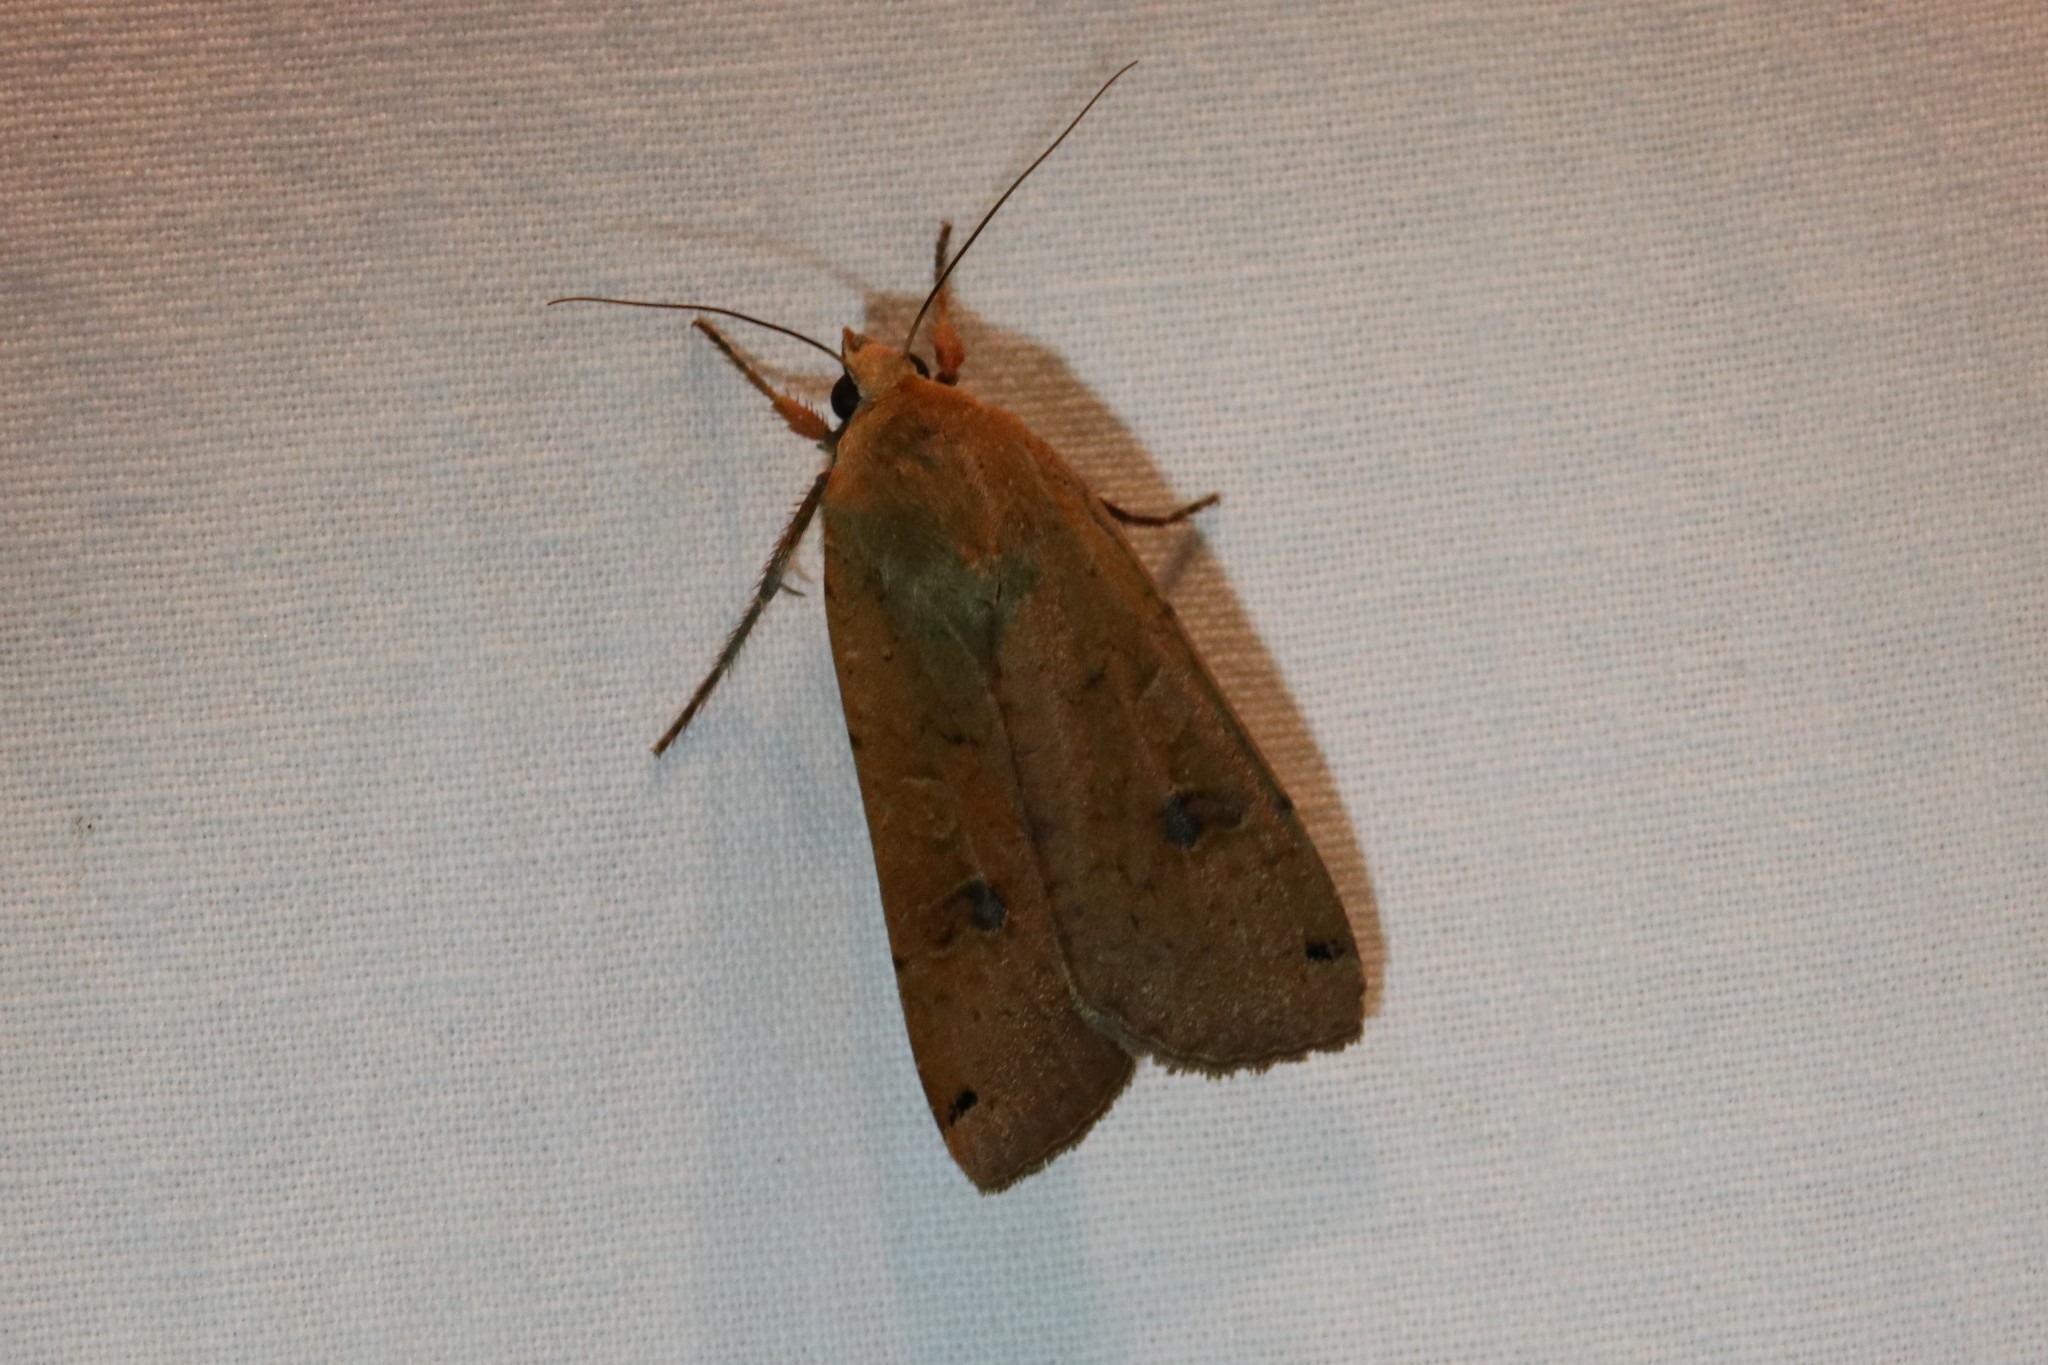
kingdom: Animalia
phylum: Arthropoda
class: Insecta
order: Lepidoptera
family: Noctuidae
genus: Noctua
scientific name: Noctua pronuba
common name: Large yellow underwing
